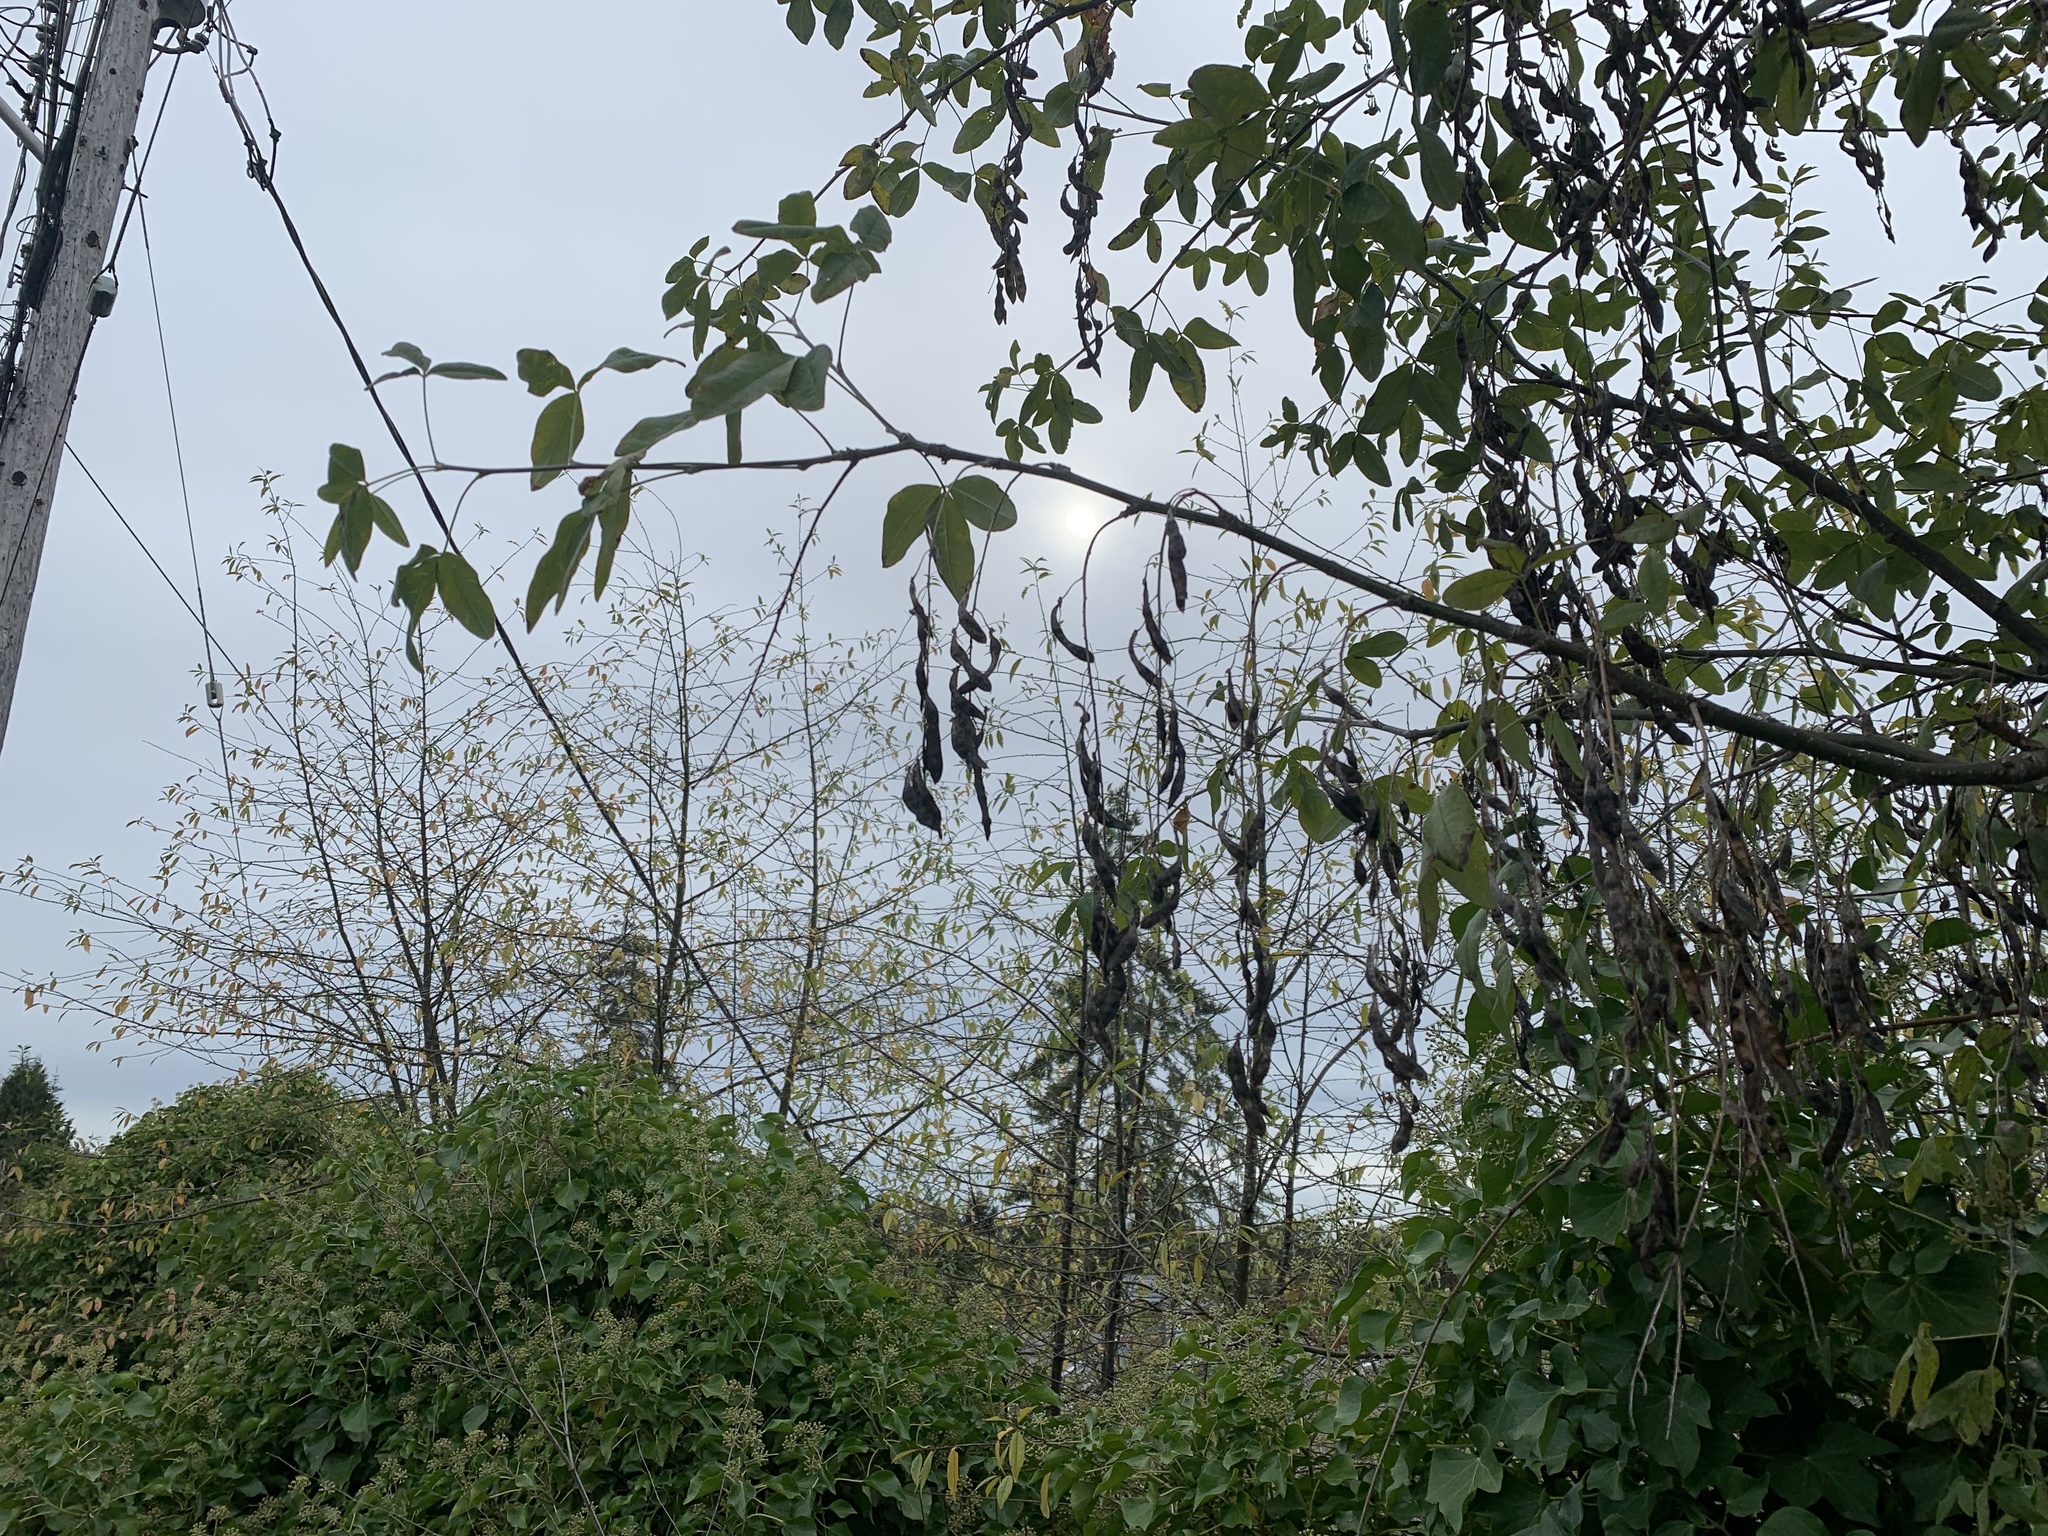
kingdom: Plantae
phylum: Tracheophyta
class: Magnoliopsida
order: Fabales
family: Fabaceae
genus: Laburnum
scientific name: Laburnum anagyroides
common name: Laburnum
